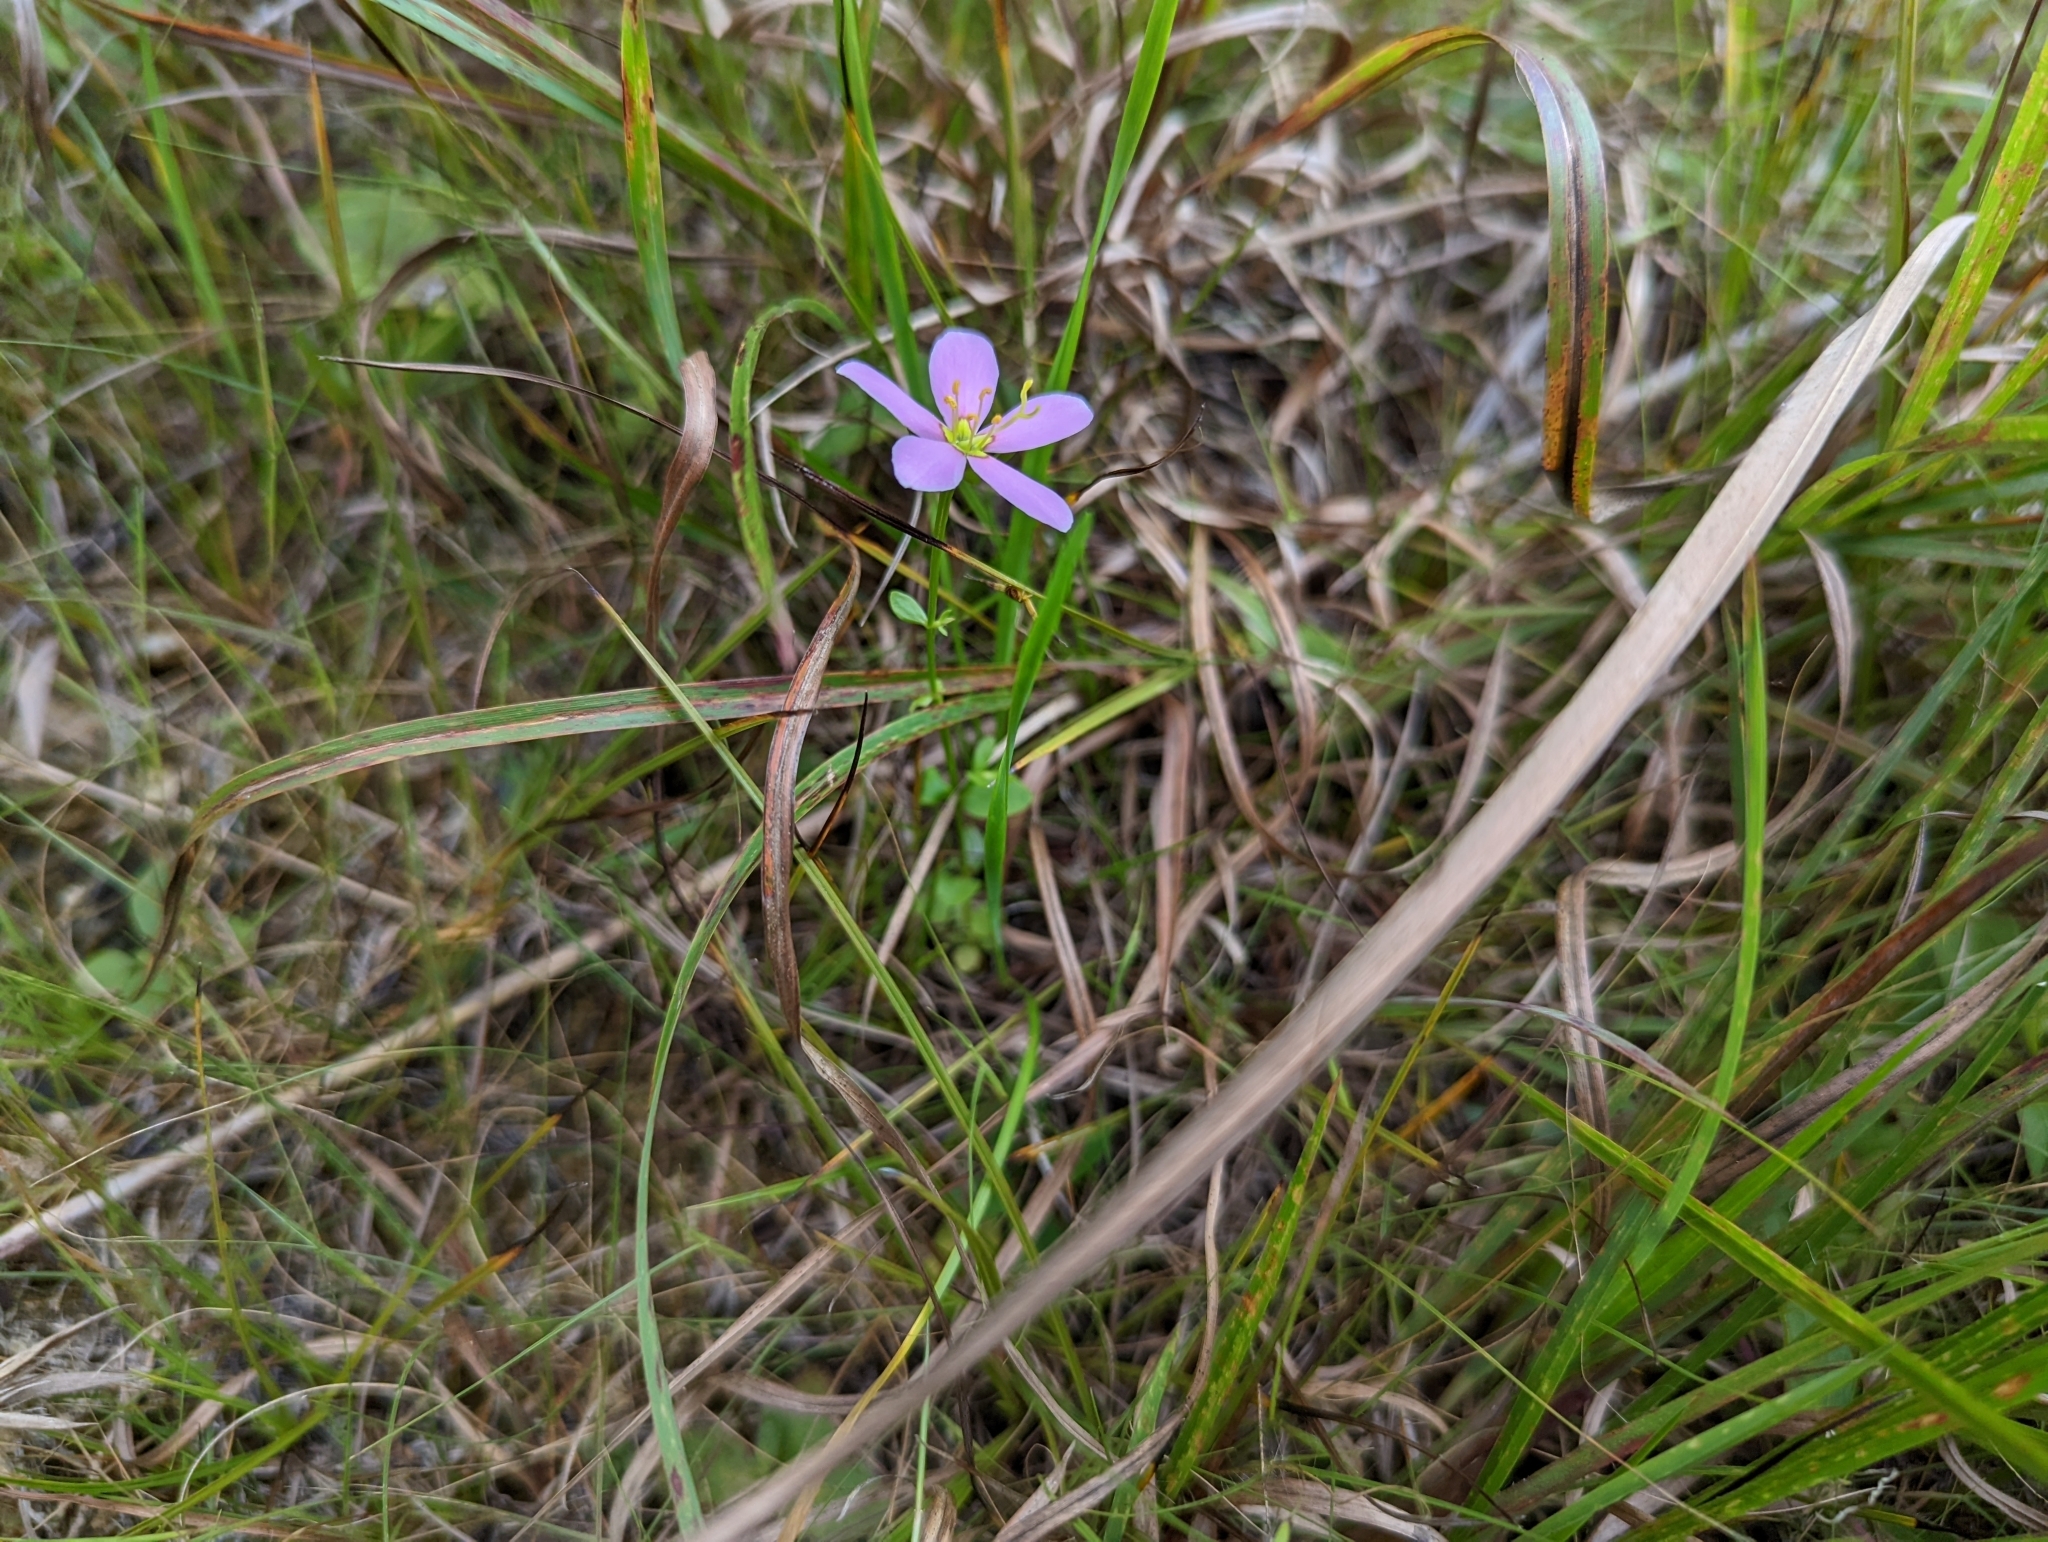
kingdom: Plantae
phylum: Tracheophyta
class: Magnoliopsida
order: Gentianales
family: Gentianaceae
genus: Sabatia
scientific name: Sabatia angularis
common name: Rose-pink
